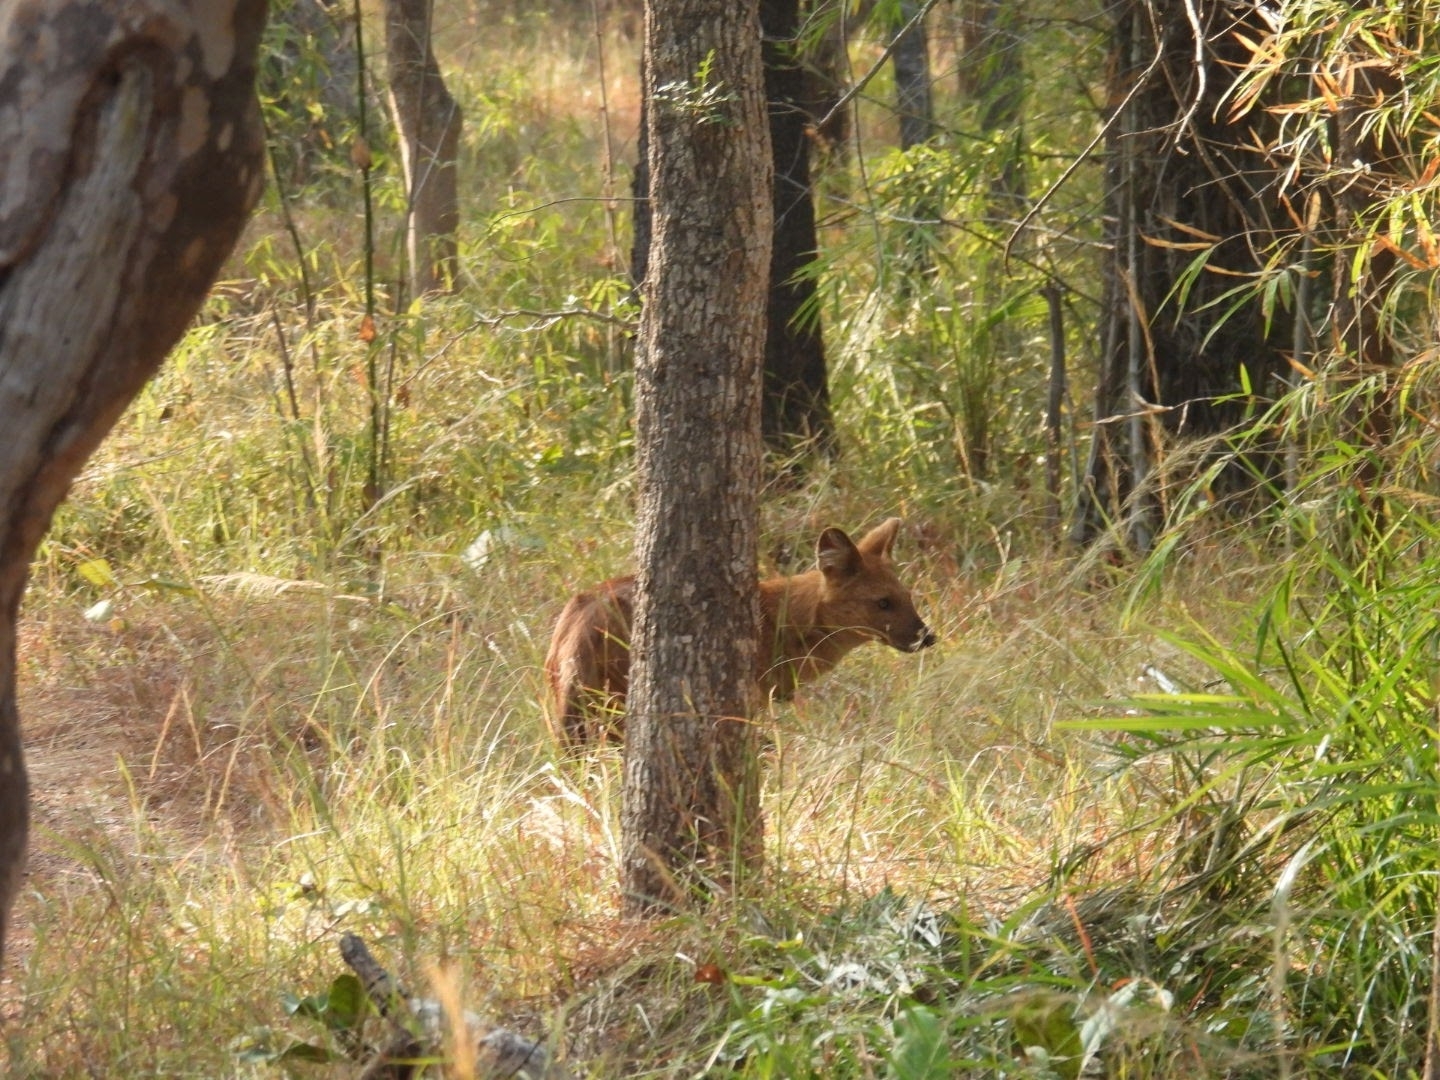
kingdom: Animalia
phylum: Chordata
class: Mammalia
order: Carnivora
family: Canidae
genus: Cuon
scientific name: Cuon alpinus
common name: Dhole
